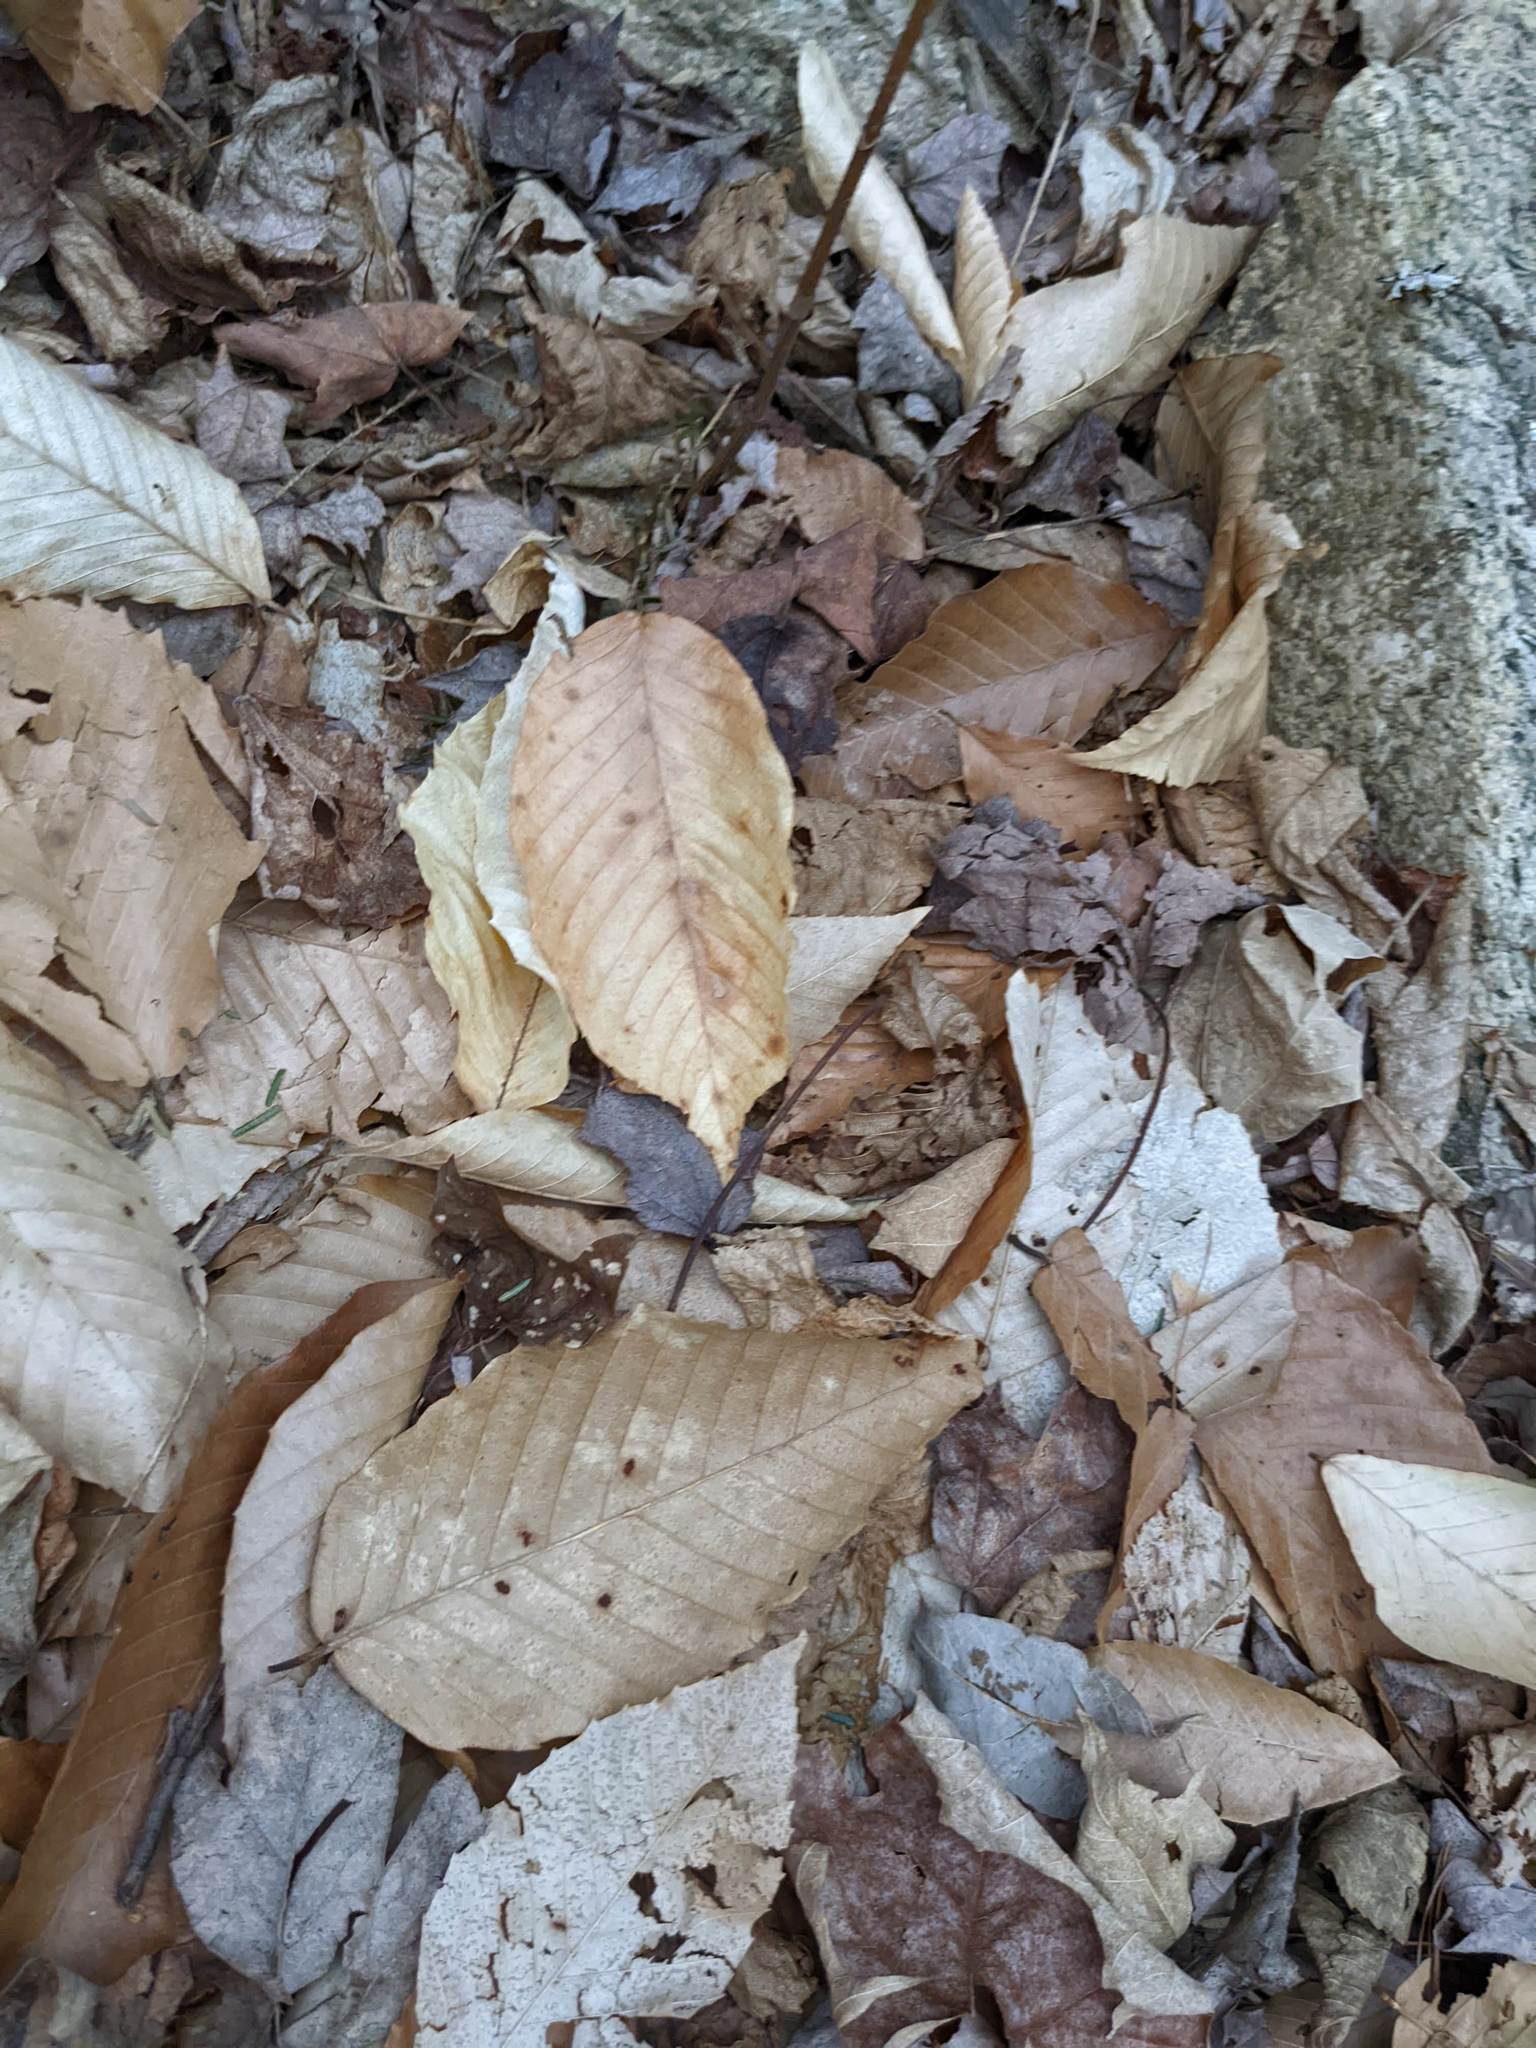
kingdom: Plantae
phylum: Tracheophyta
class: Magnoliopsida
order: Fagales
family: Fagaceae
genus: Fagus
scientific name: Fagus grandifolia
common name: American beech
